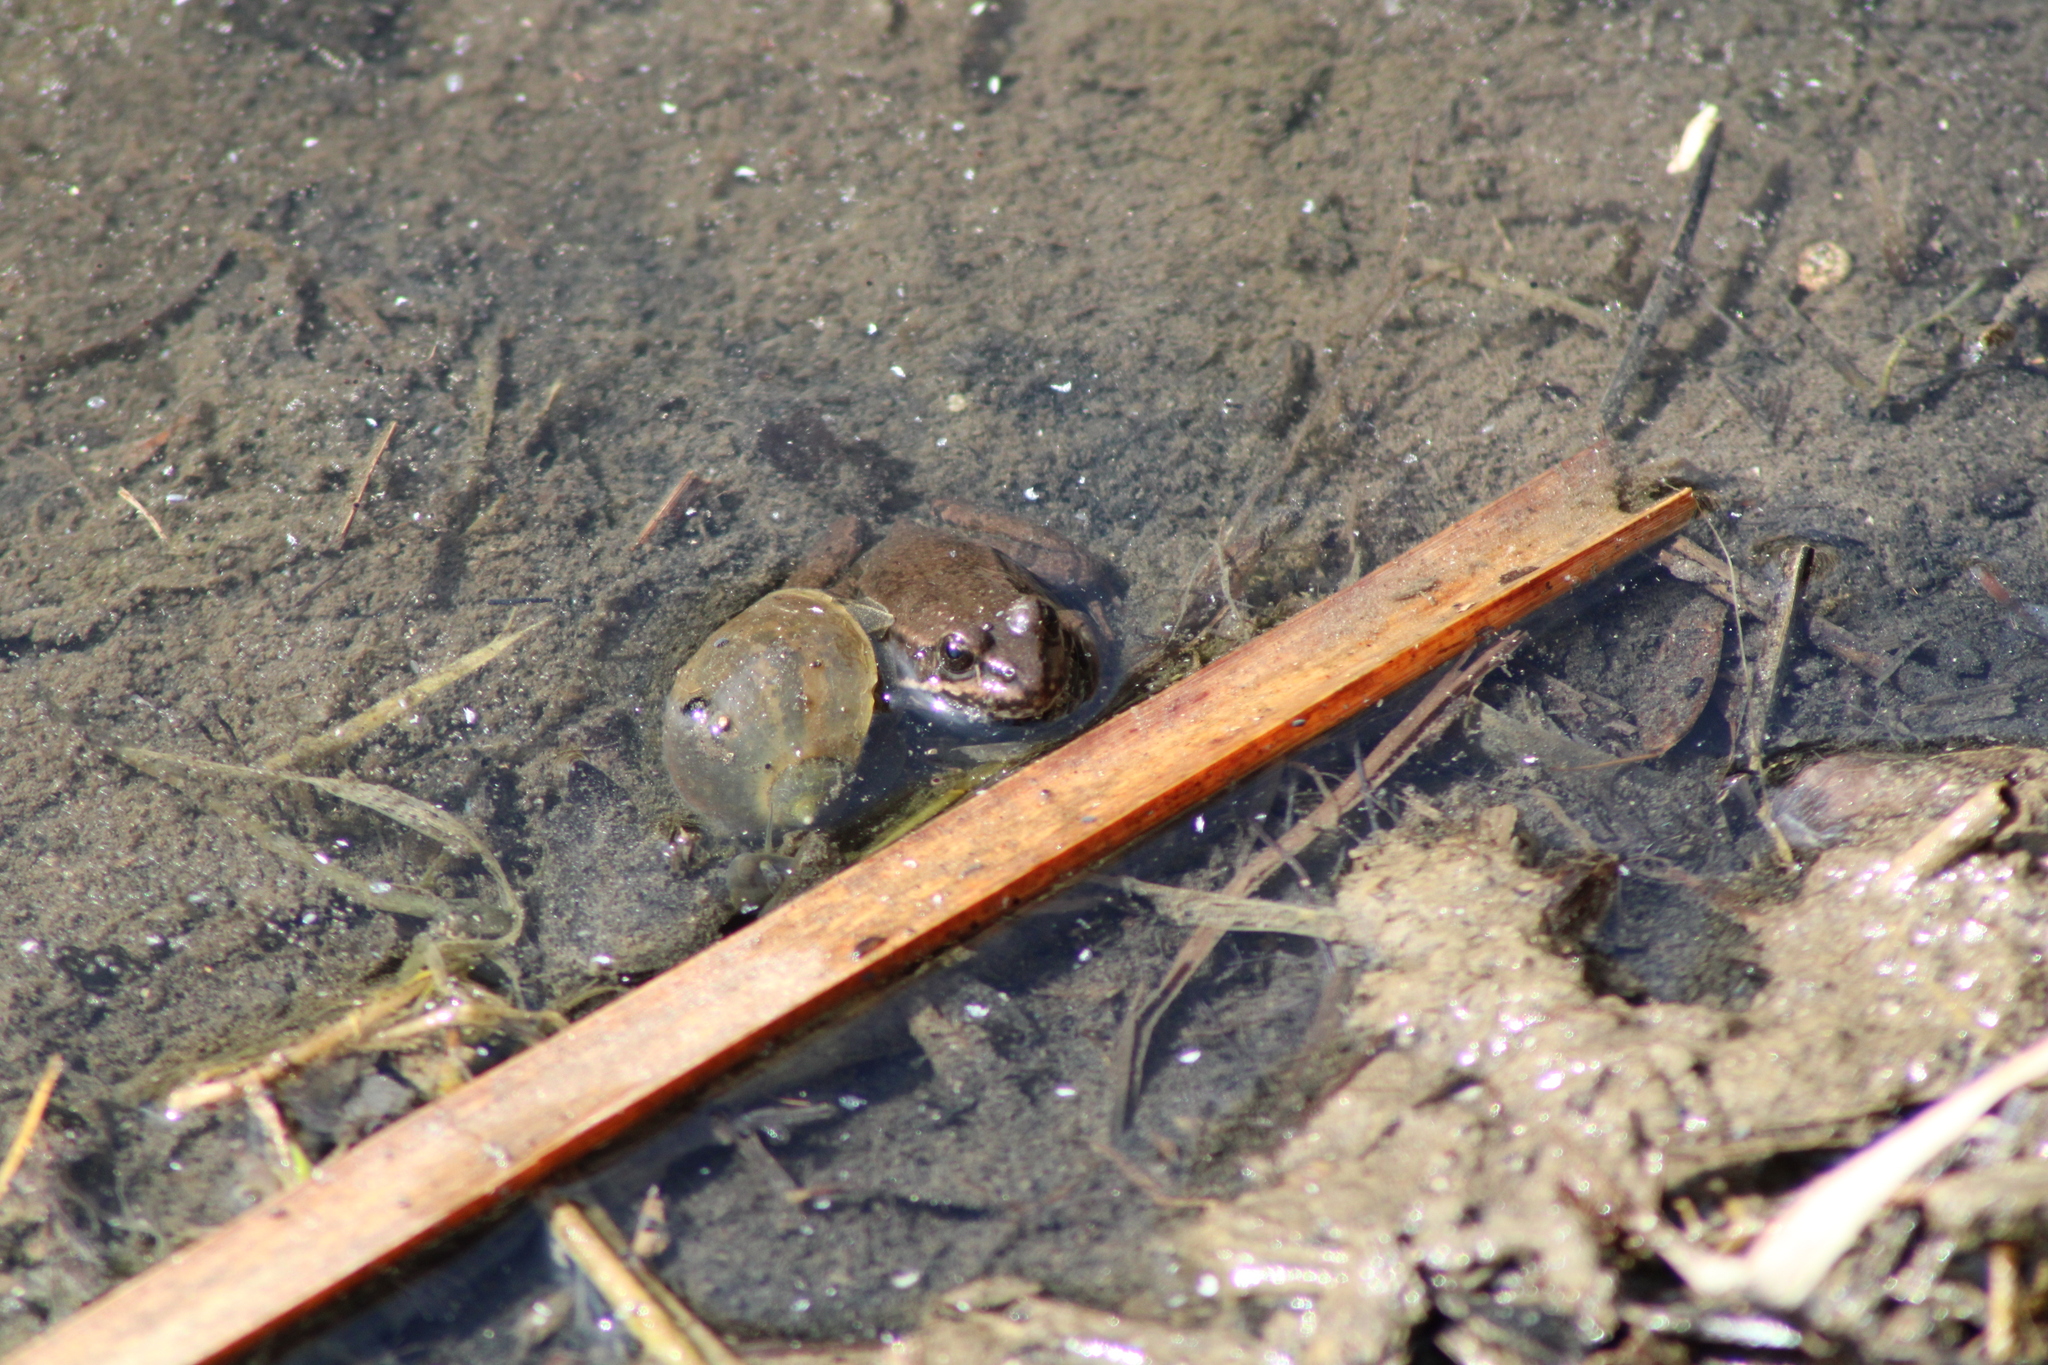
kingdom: Animalia
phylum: Chordata
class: Amphibia
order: Anura
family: Ranidae
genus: Pelophylax
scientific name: Pelophylax
